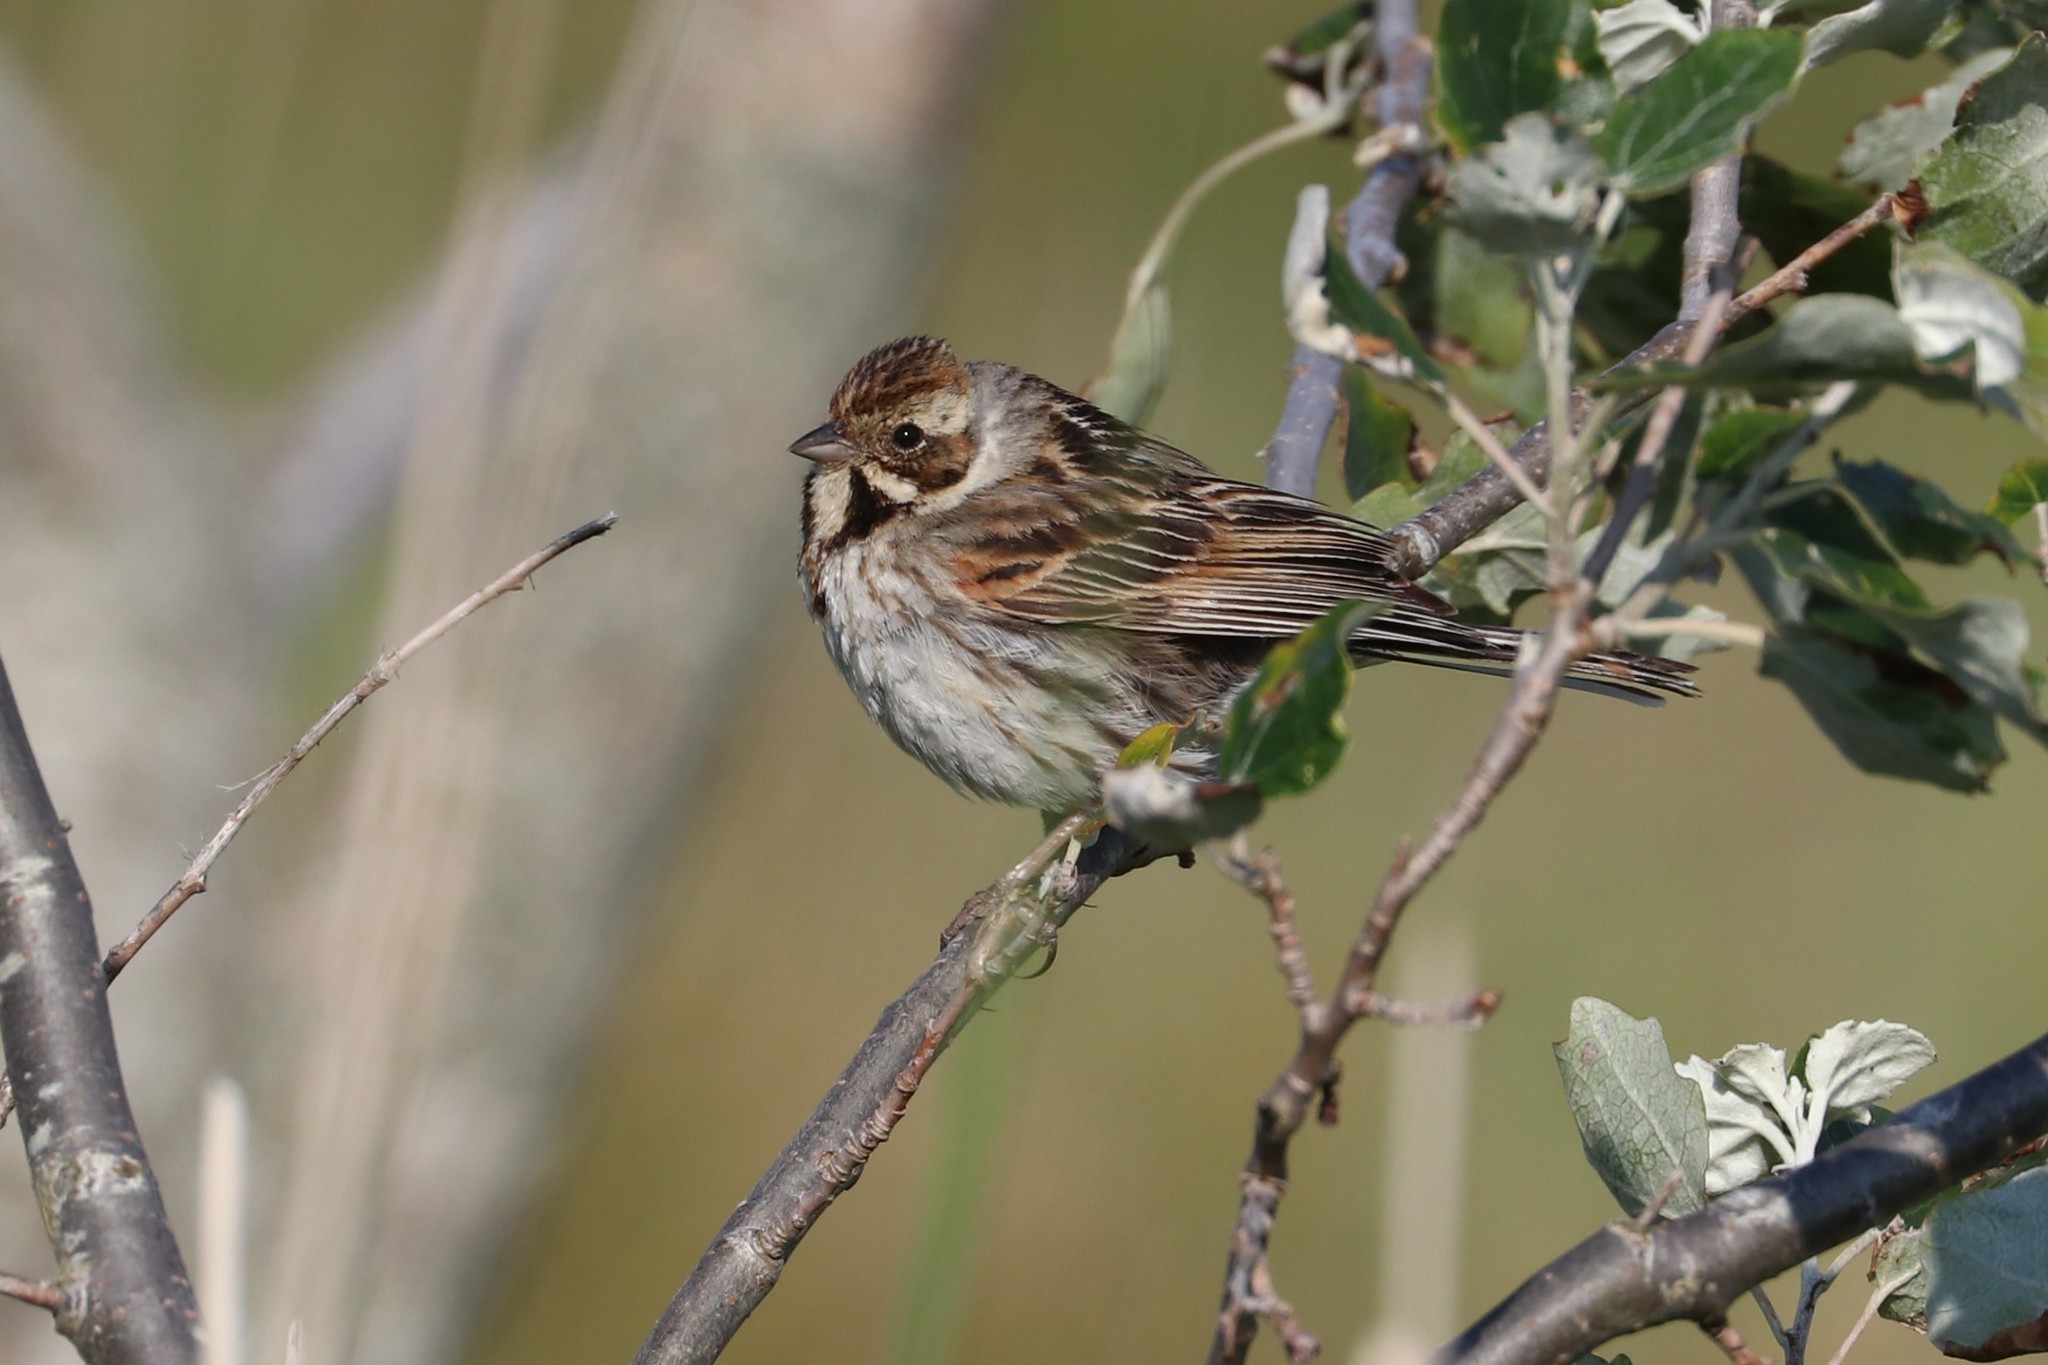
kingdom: Animalia
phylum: Chordata
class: Aves
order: Passeriformes
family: Emberizidae
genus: Emberiza
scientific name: Emberiza schoeniclus
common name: Reed bunting
